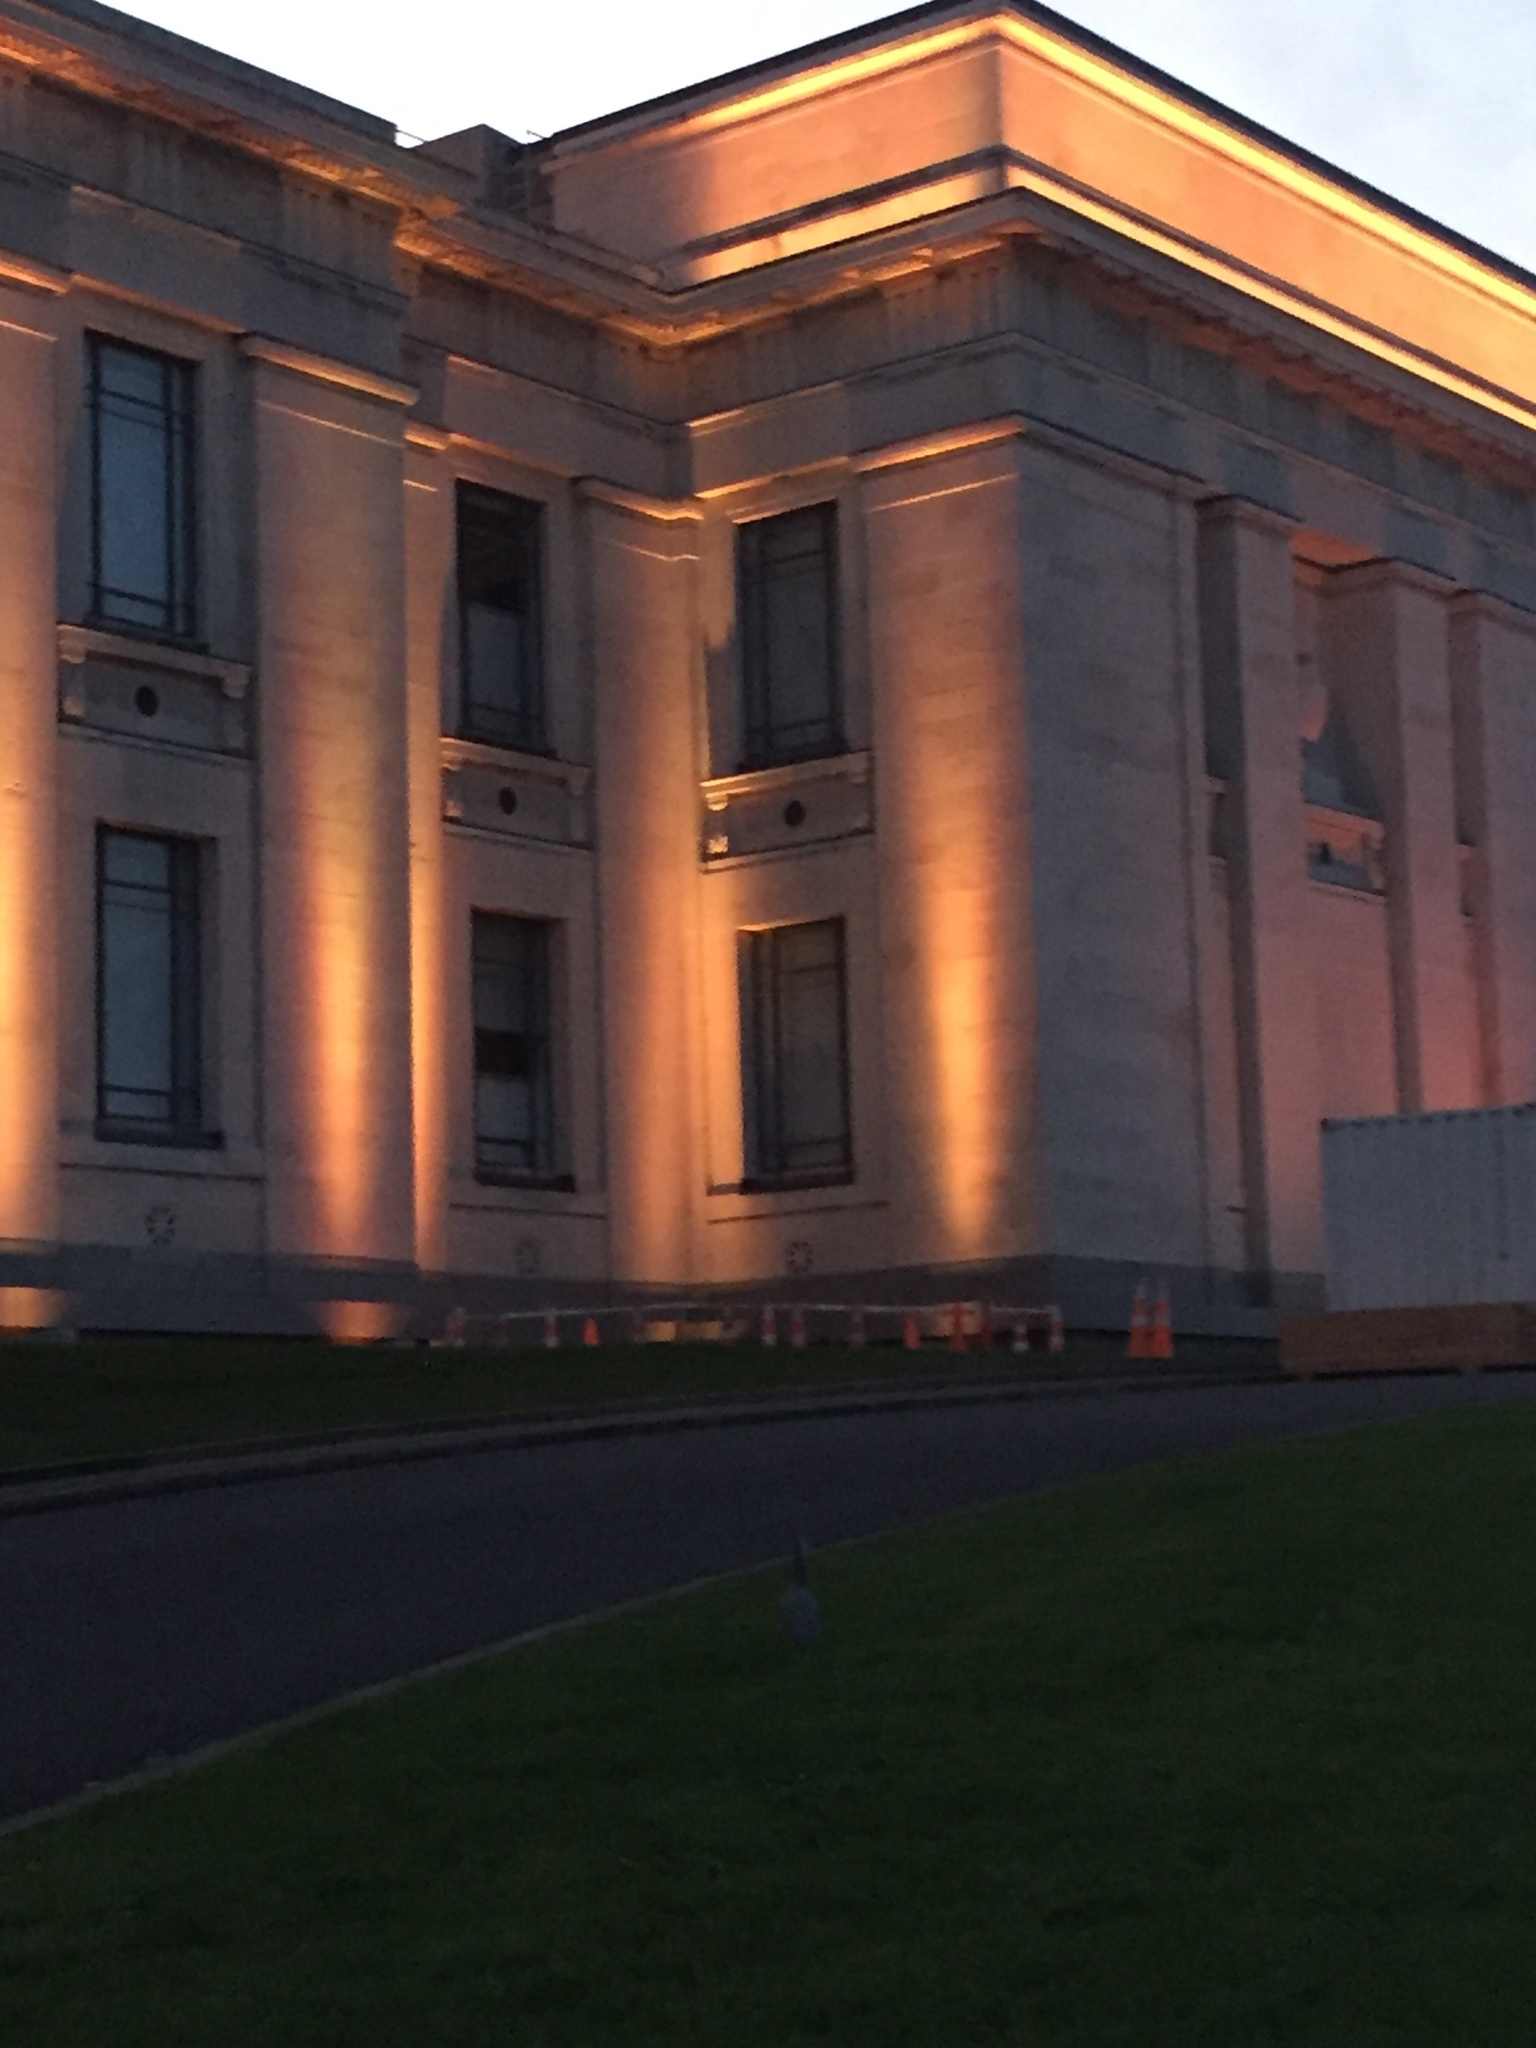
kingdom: Animalia
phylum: Chordata
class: Aves
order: Pelecaniformes
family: Ardeidae
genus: Egretta
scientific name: Egretta novaehollandiae
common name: White-faced heron
